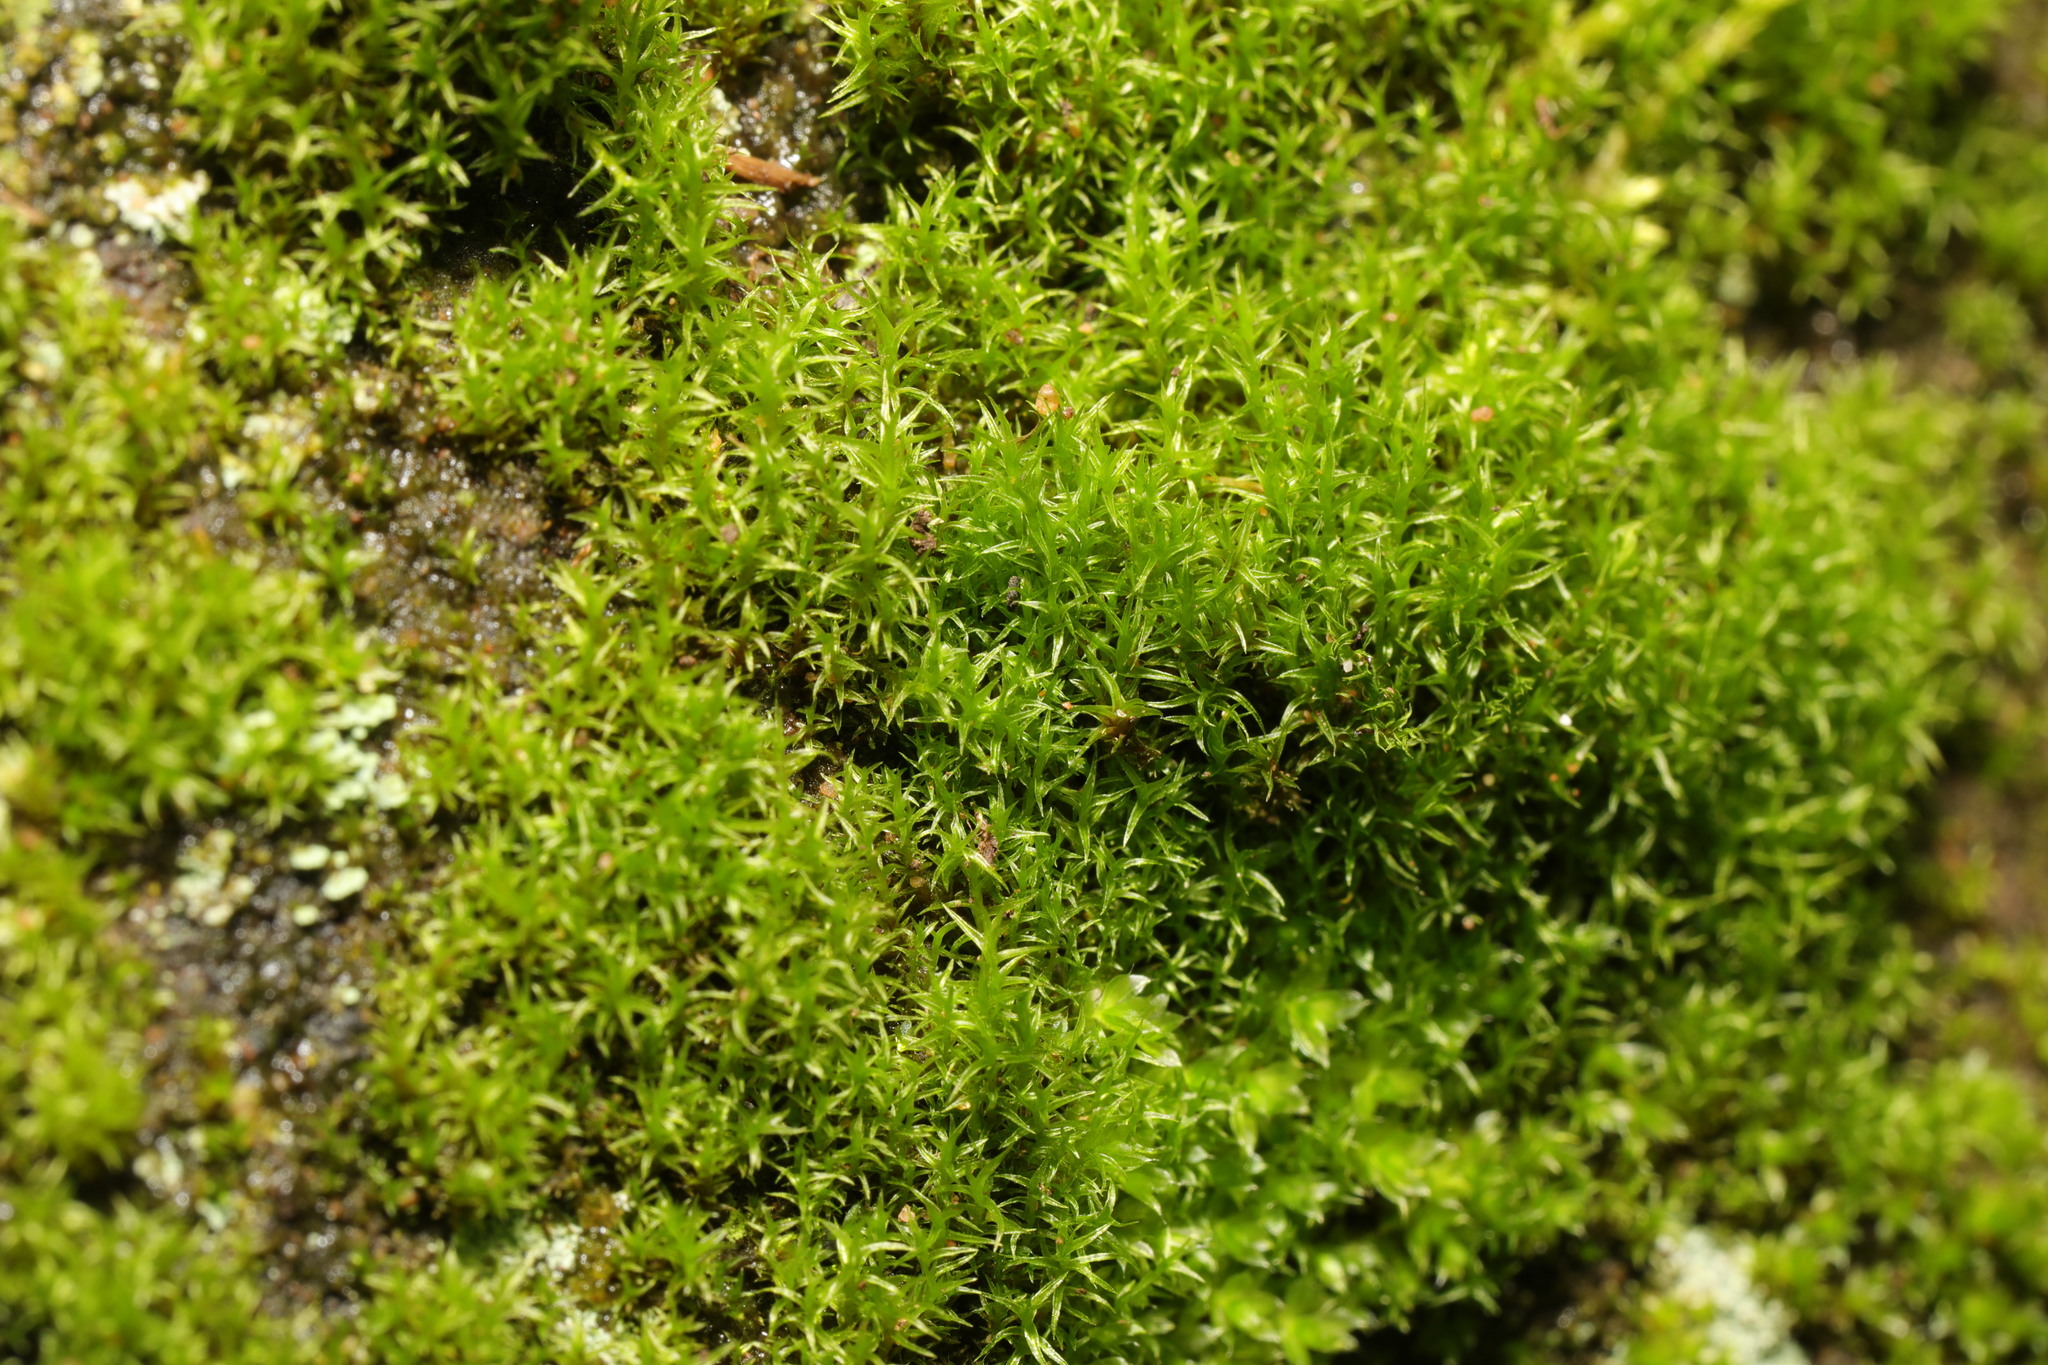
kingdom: Plantae
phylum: Bryophyta
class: Bryopsida
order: Dicranales
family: Ditrichaceae
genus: Ceratodon
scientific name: Ceratodon purpureus
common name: Redshank
